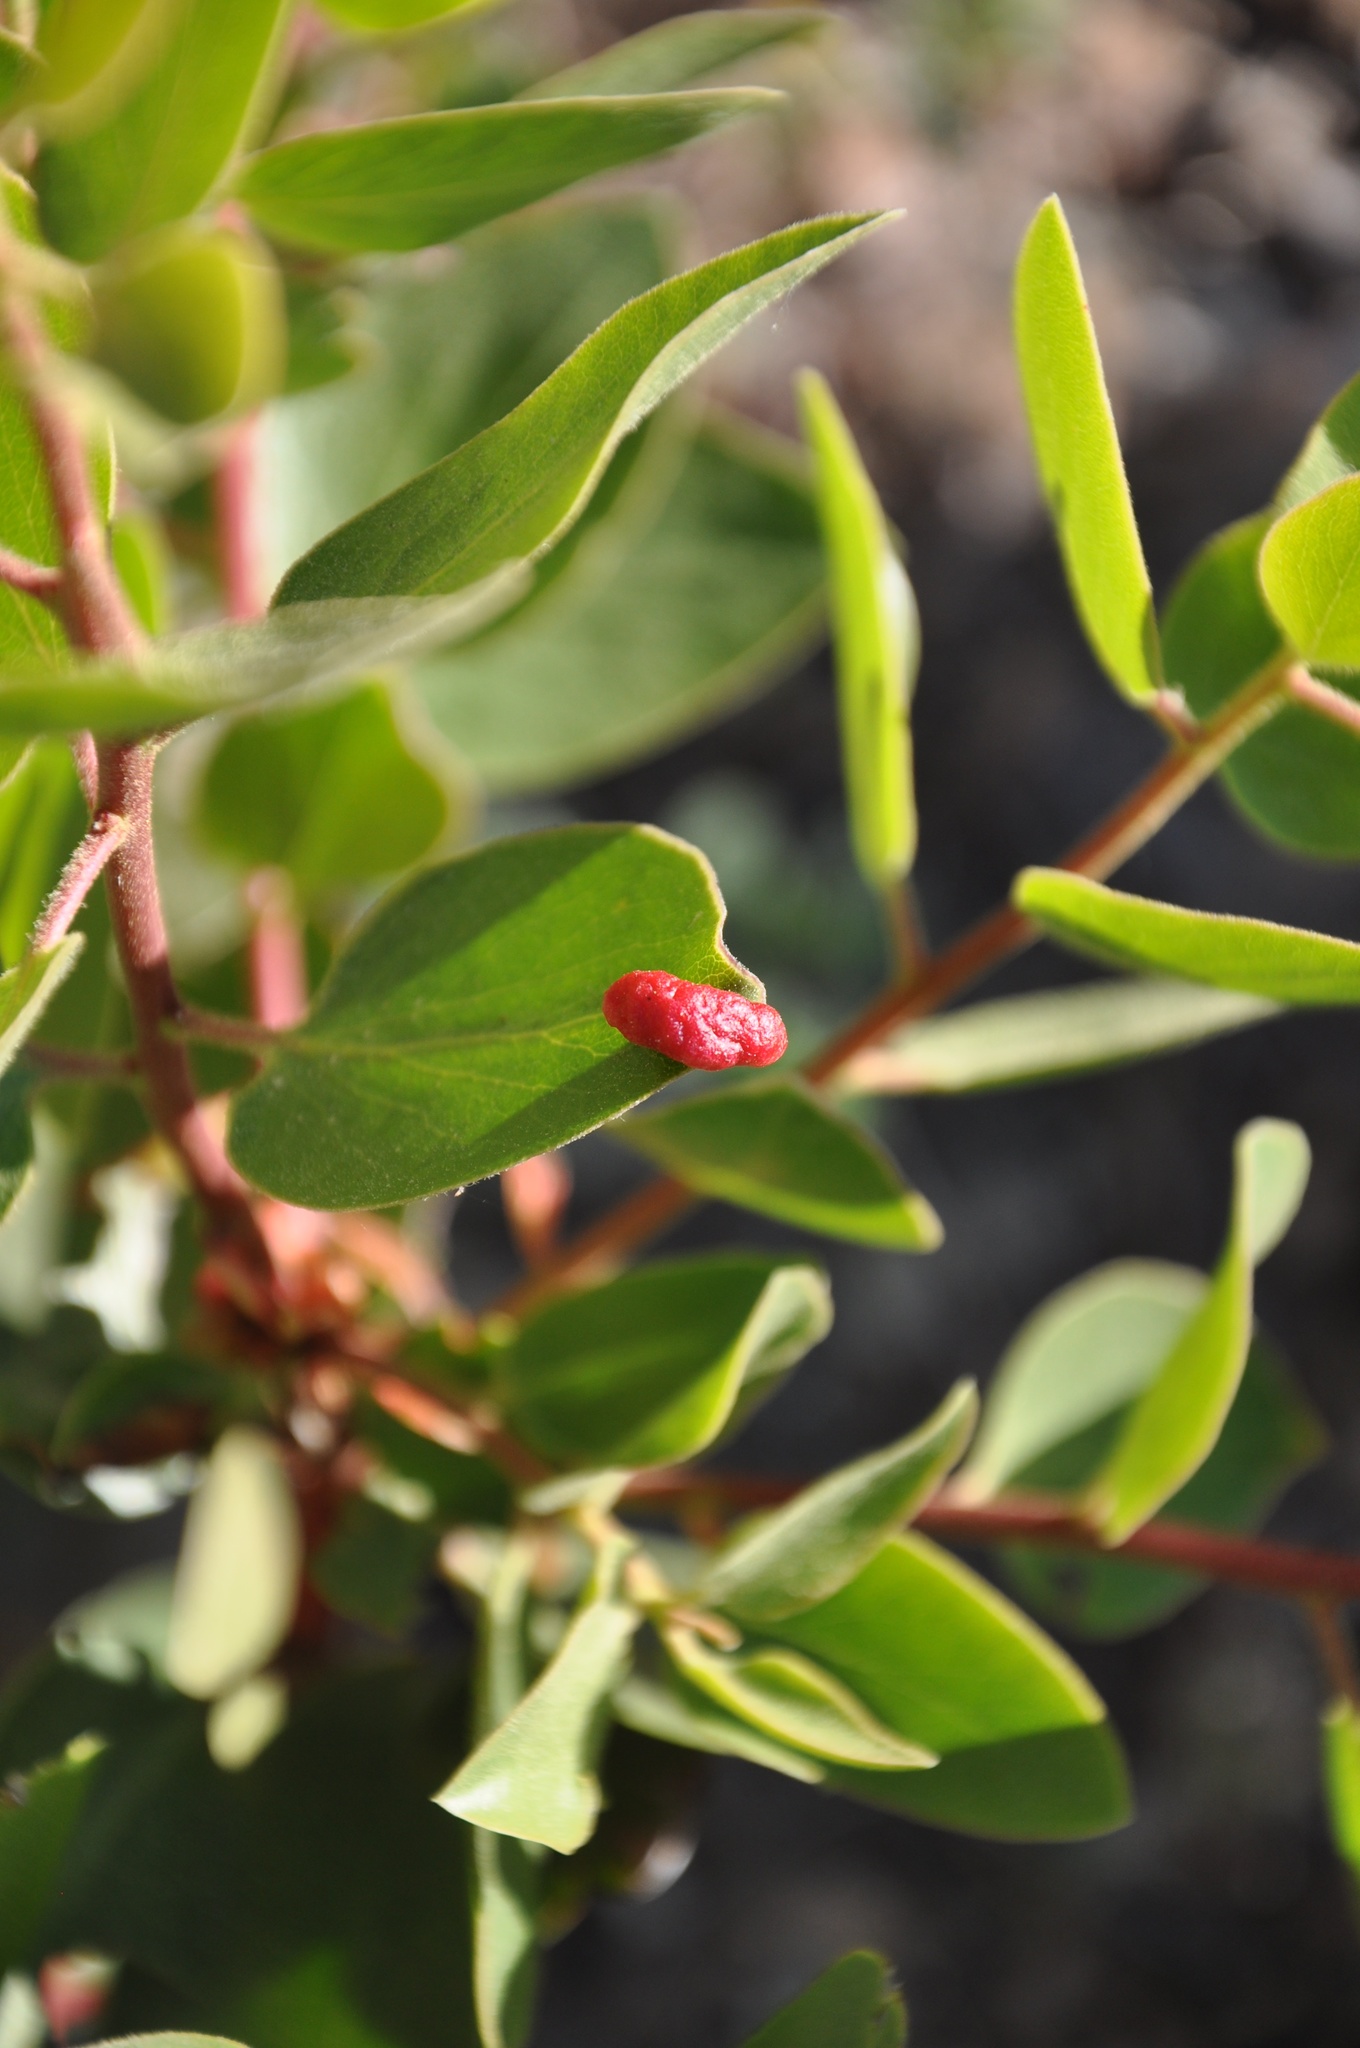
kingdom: Animalia
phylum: Chordata
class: Squamata
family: Phrynosomatidae
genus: Sceloporus
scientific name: Sceloporus graciosus
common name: Sagebrush lizard
